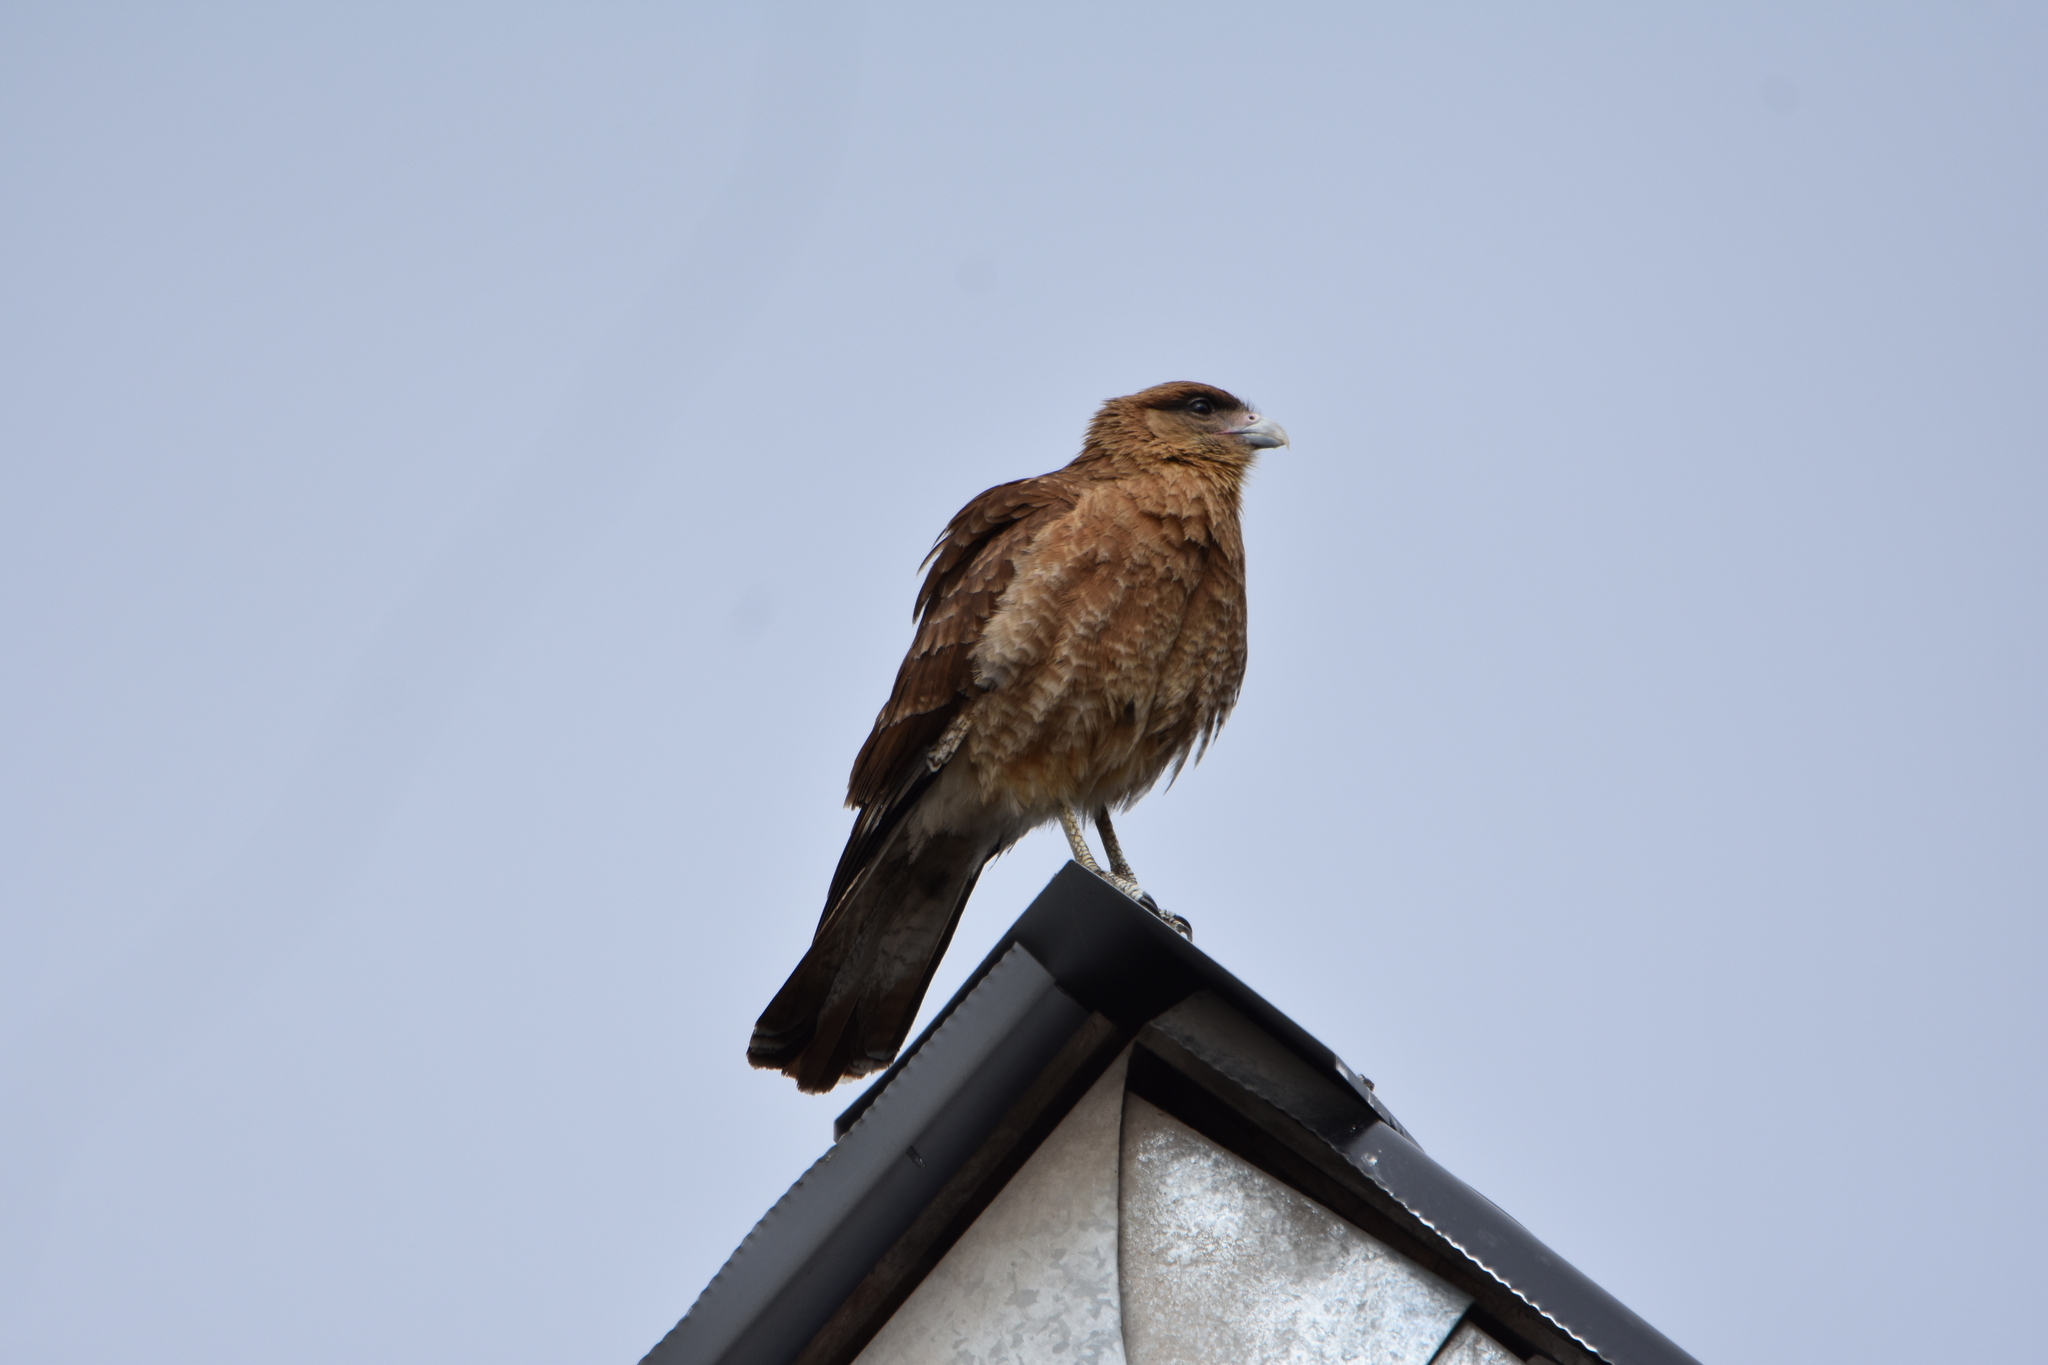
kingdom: Animalia
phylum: Chordata
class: Aves
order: Falconiformes
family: Falconidae
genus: Daptrius
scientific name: Daptrius
